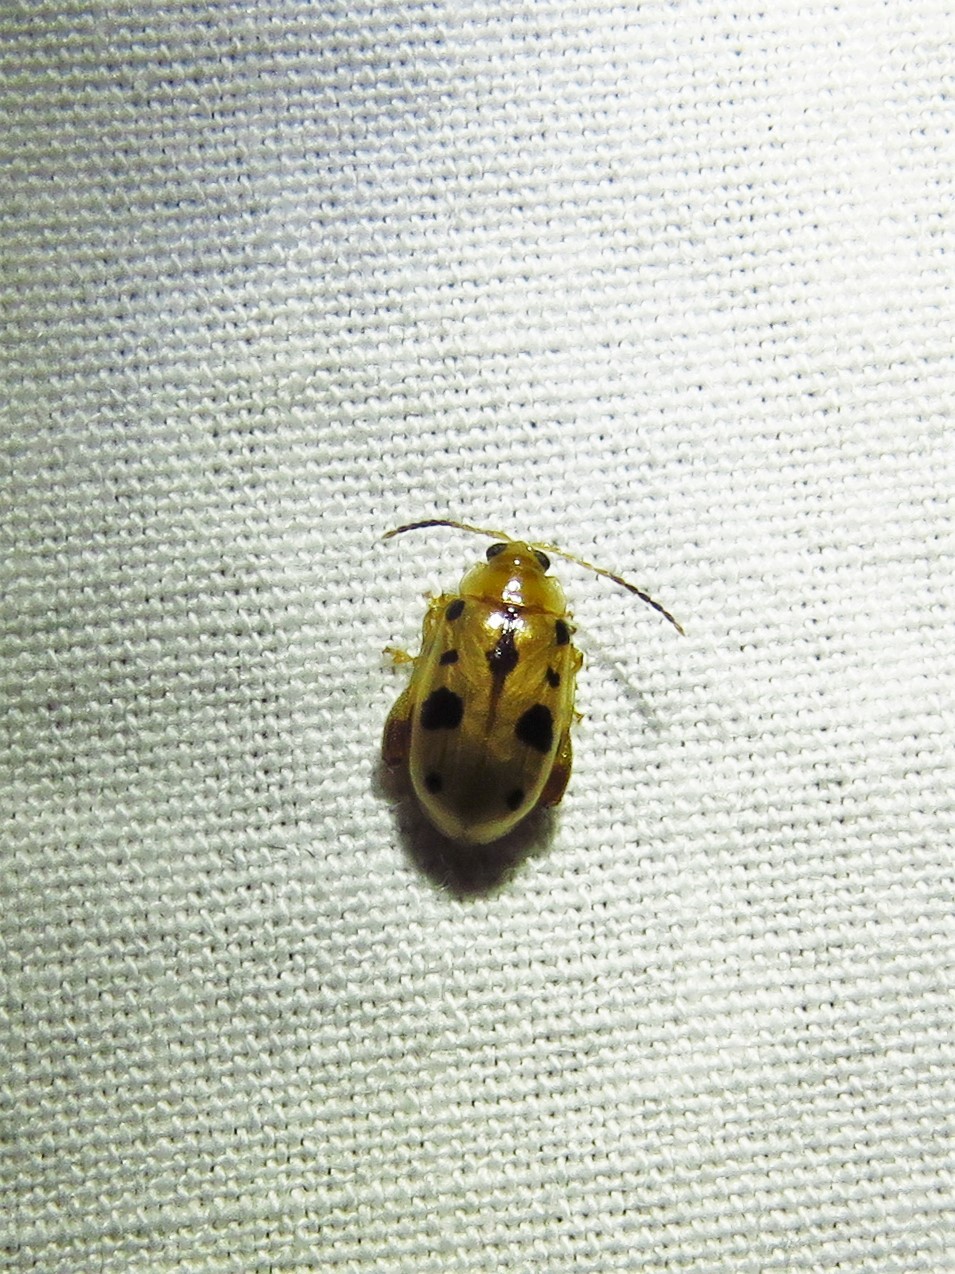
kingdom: Animalia
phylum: Arthropoda
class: Insecta
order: Coleoptera
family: Chrysomelidae
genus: Capraita
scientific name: Capraita nigrosignata
